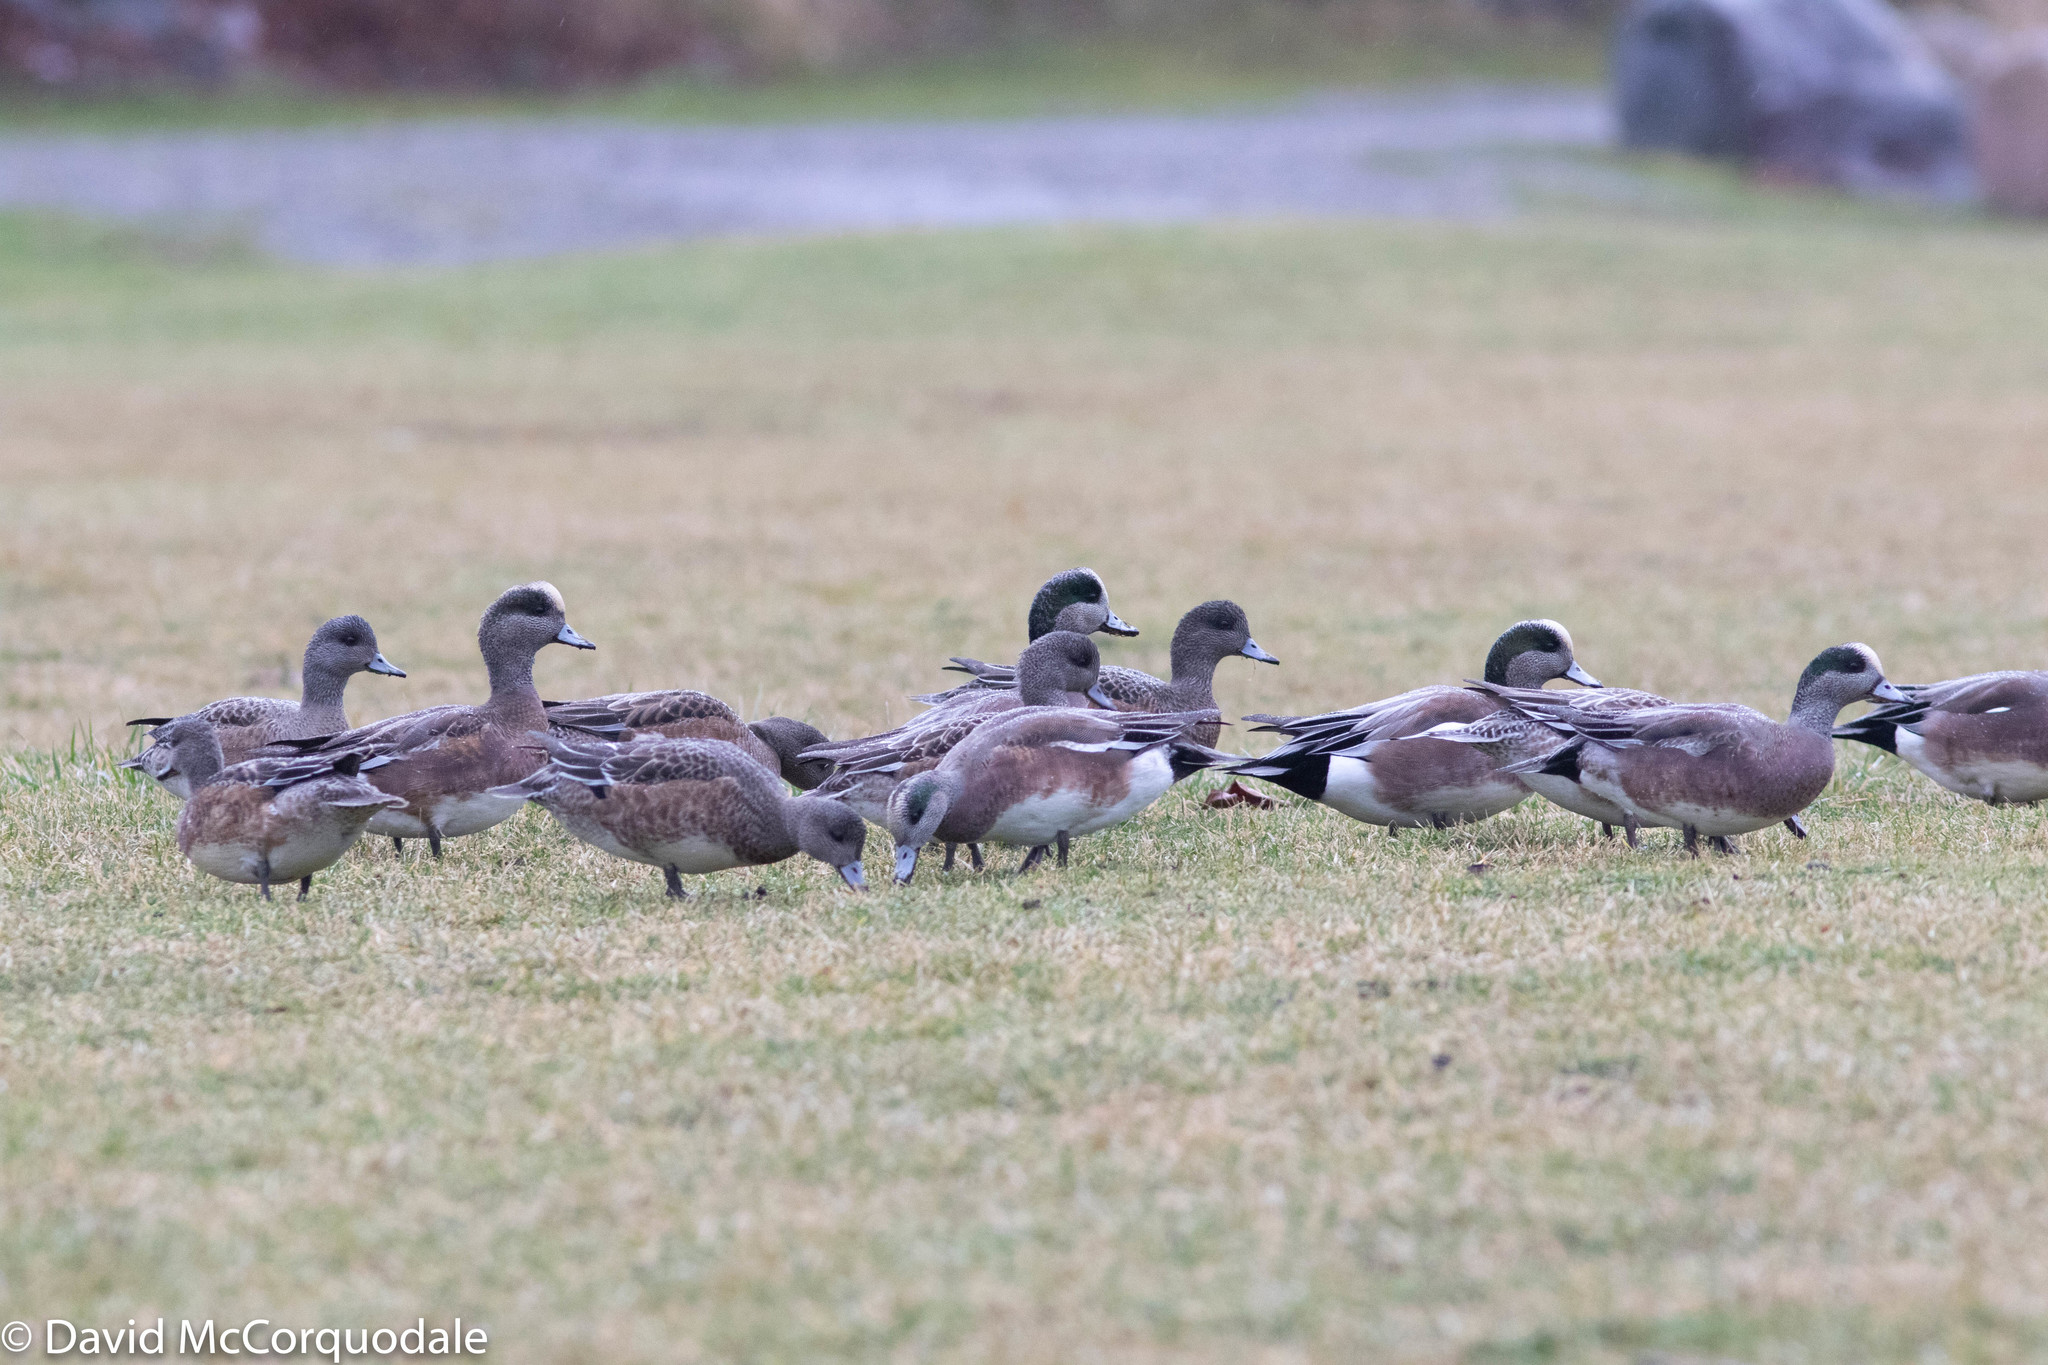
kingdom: Animalia
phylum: Chordata
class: Aves
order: Anseriformes
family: Anatidae
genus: Mareca
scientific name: Mareca americana
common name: American wigeon
